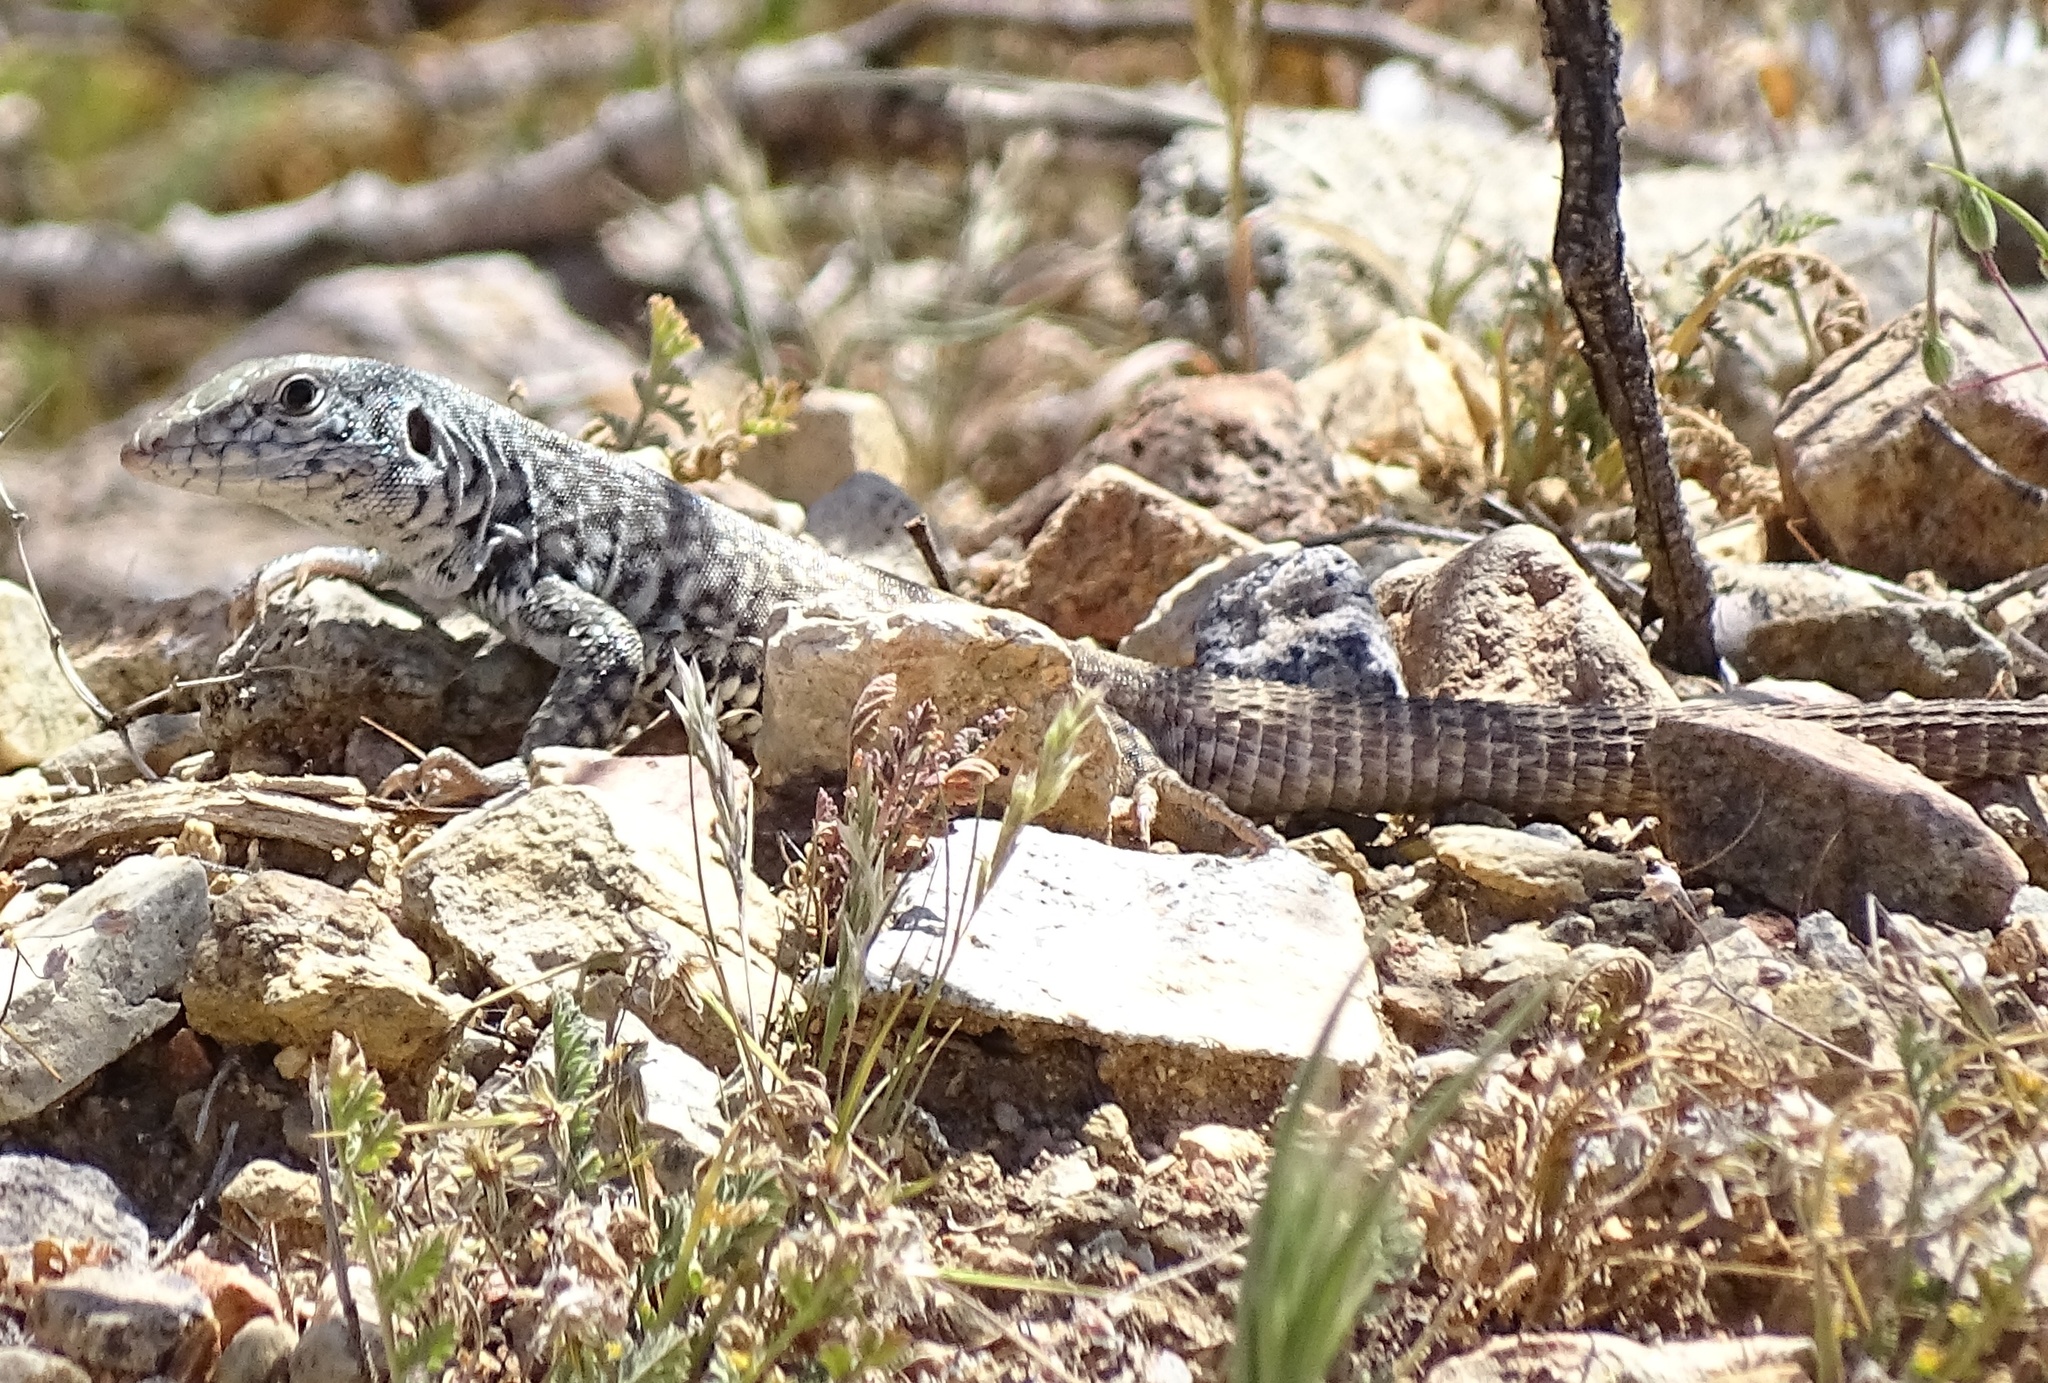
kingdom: Animalia
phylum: Chordata
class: Squamata
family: Teiidae
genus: Aspidoscelis
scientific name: Aspidoscelis tigris
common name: Tiger whiptail
